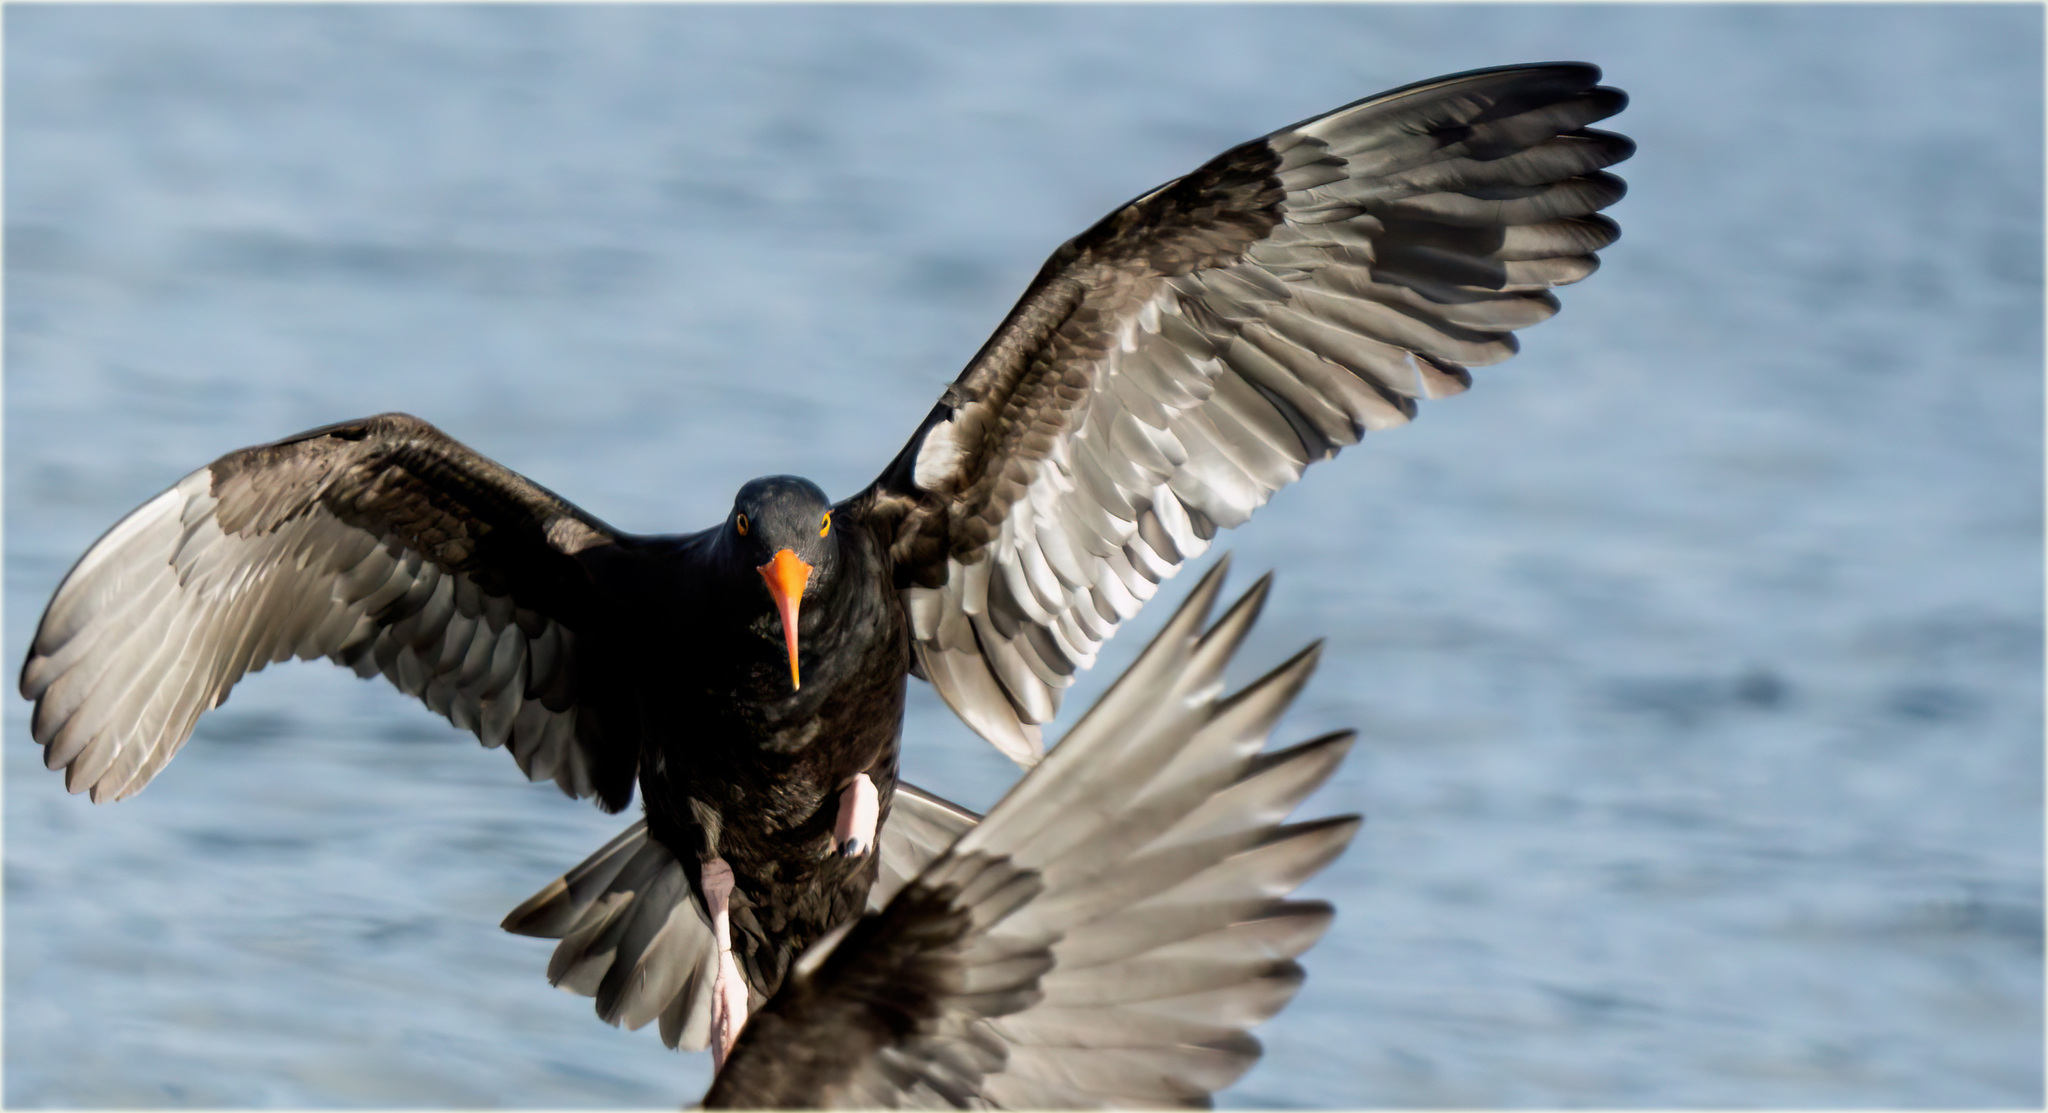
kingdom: Animalia
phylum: Chordata
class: Aves
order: Charadriiformes
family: Haematopodidae
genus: Haematopus
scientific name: Haematopus bachmani
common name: Black oystercatcher
